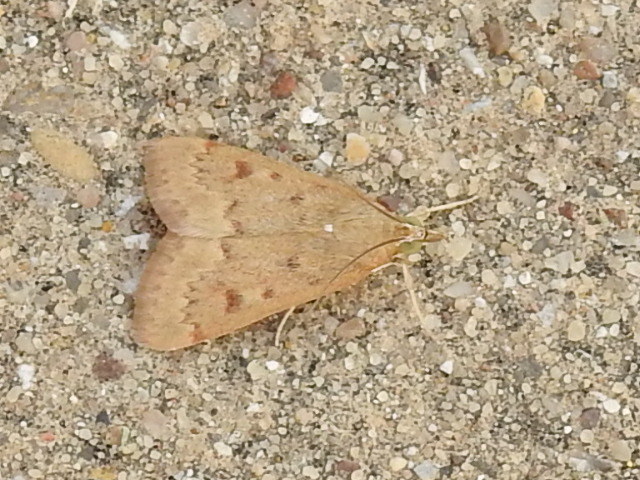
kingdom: Animalia
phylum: Arthropoda
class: Insecta
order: Lepidoptera
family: Crambidae
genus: Achyra
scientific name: Achyra rantalis
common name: Garden webworm
